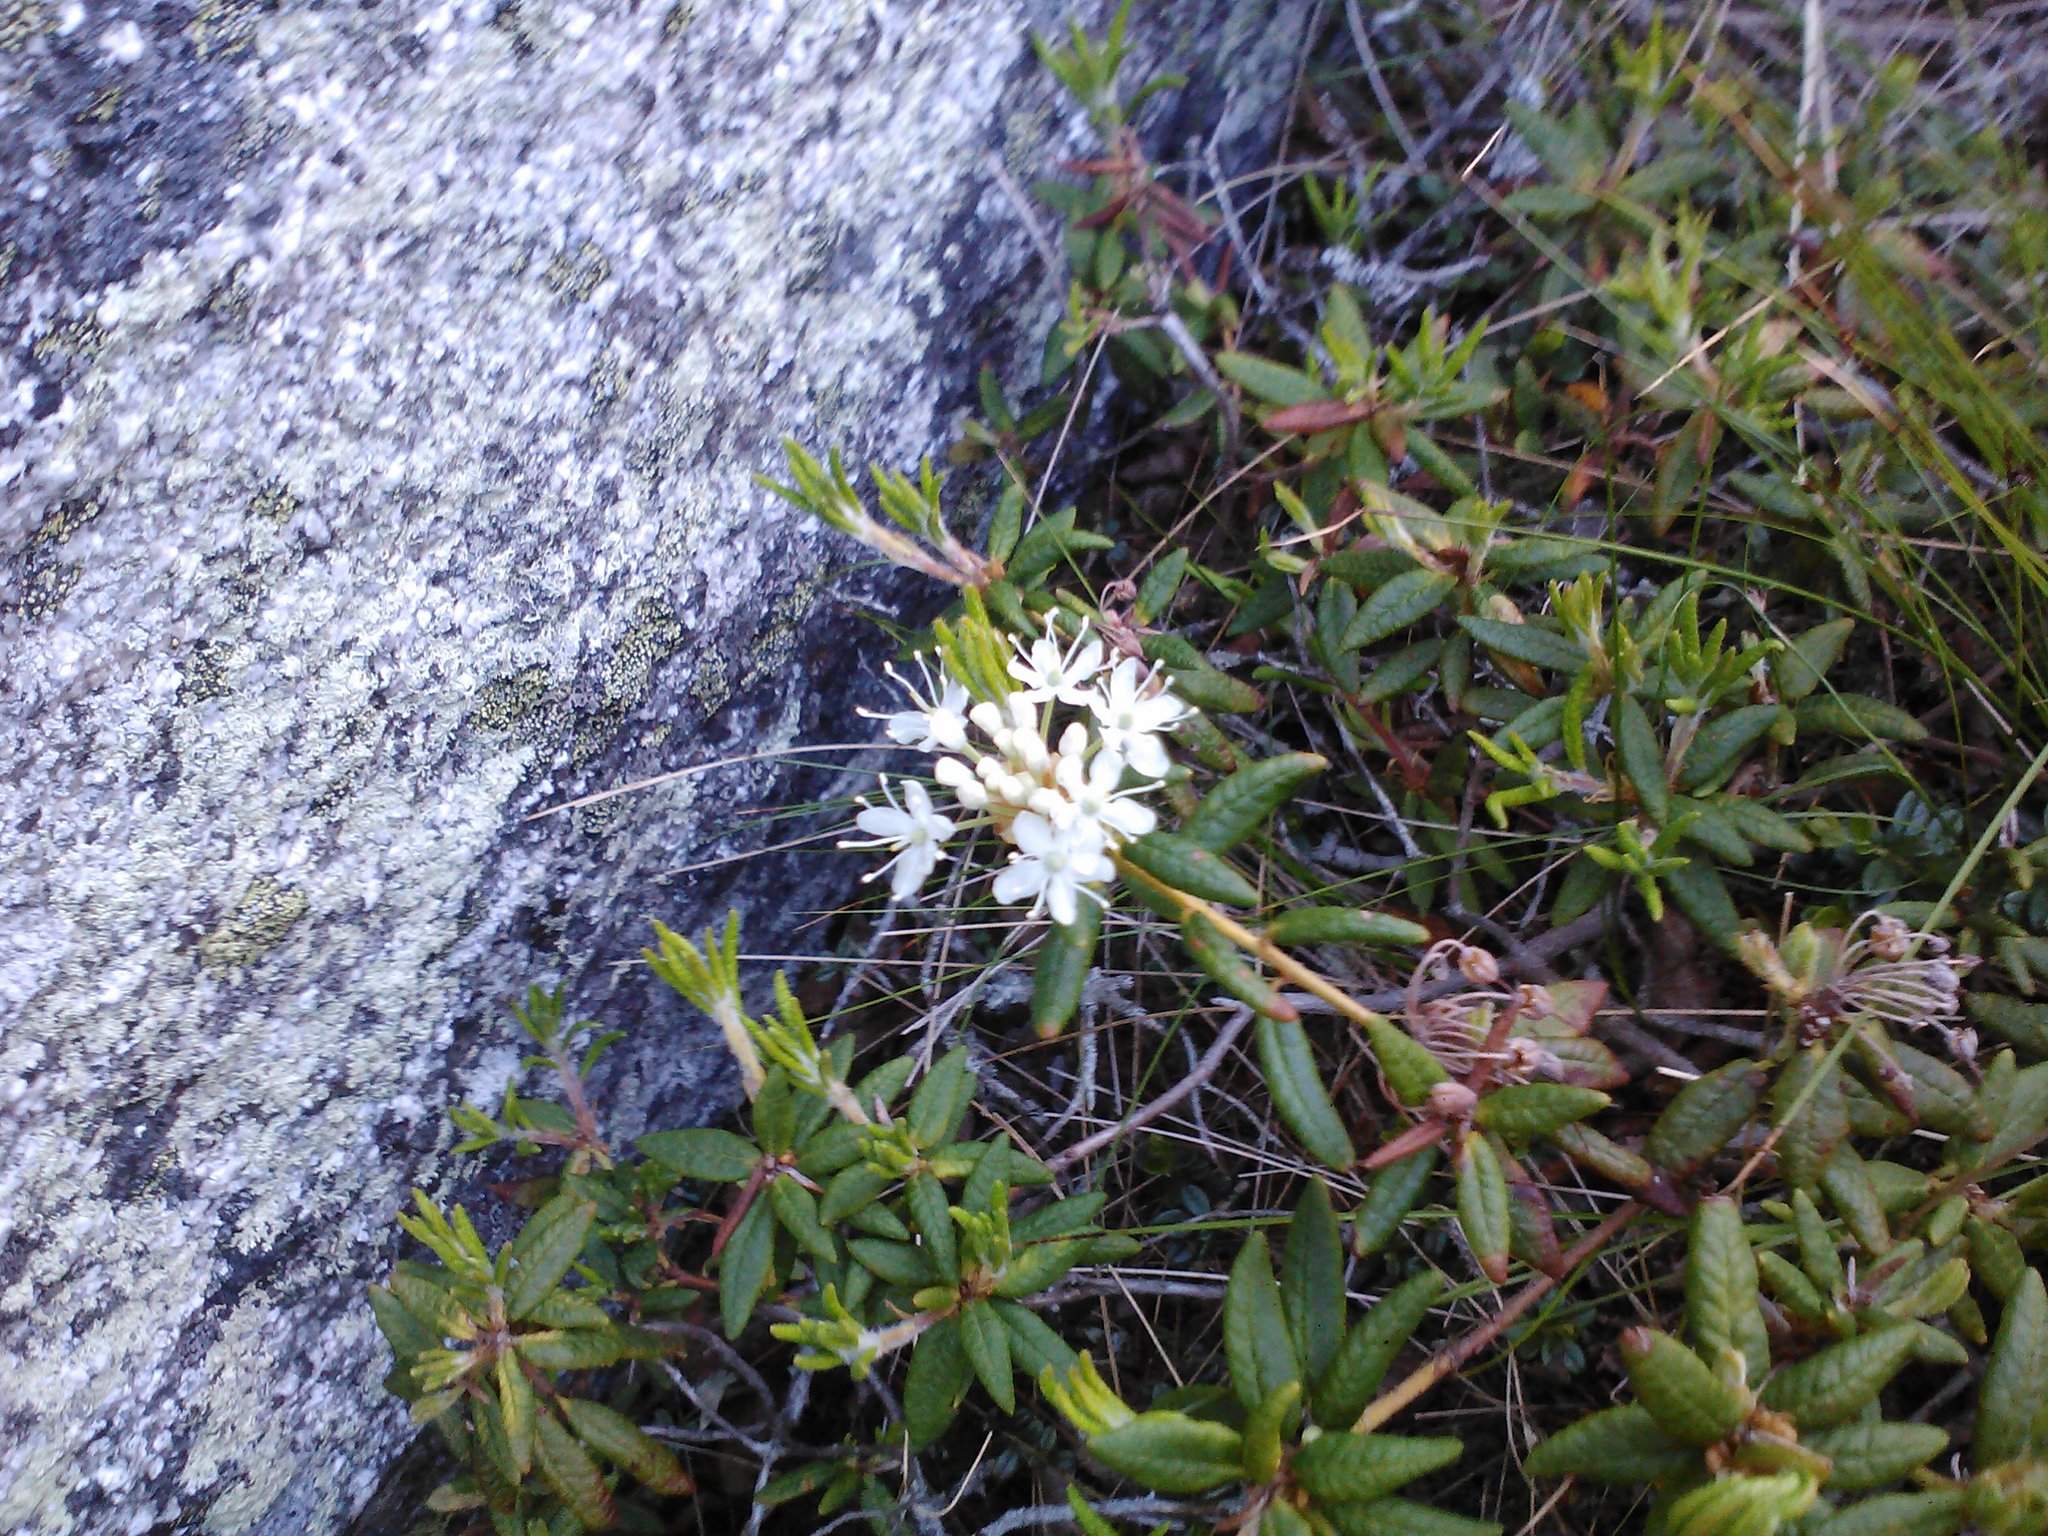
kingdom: Plantae
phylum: Tracheophyta
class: Magnoliopsida
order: Ericales
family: Ericaceae
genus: Rhododendron
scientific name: Rhododendron groenlandicum
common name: Bog labrador tea
